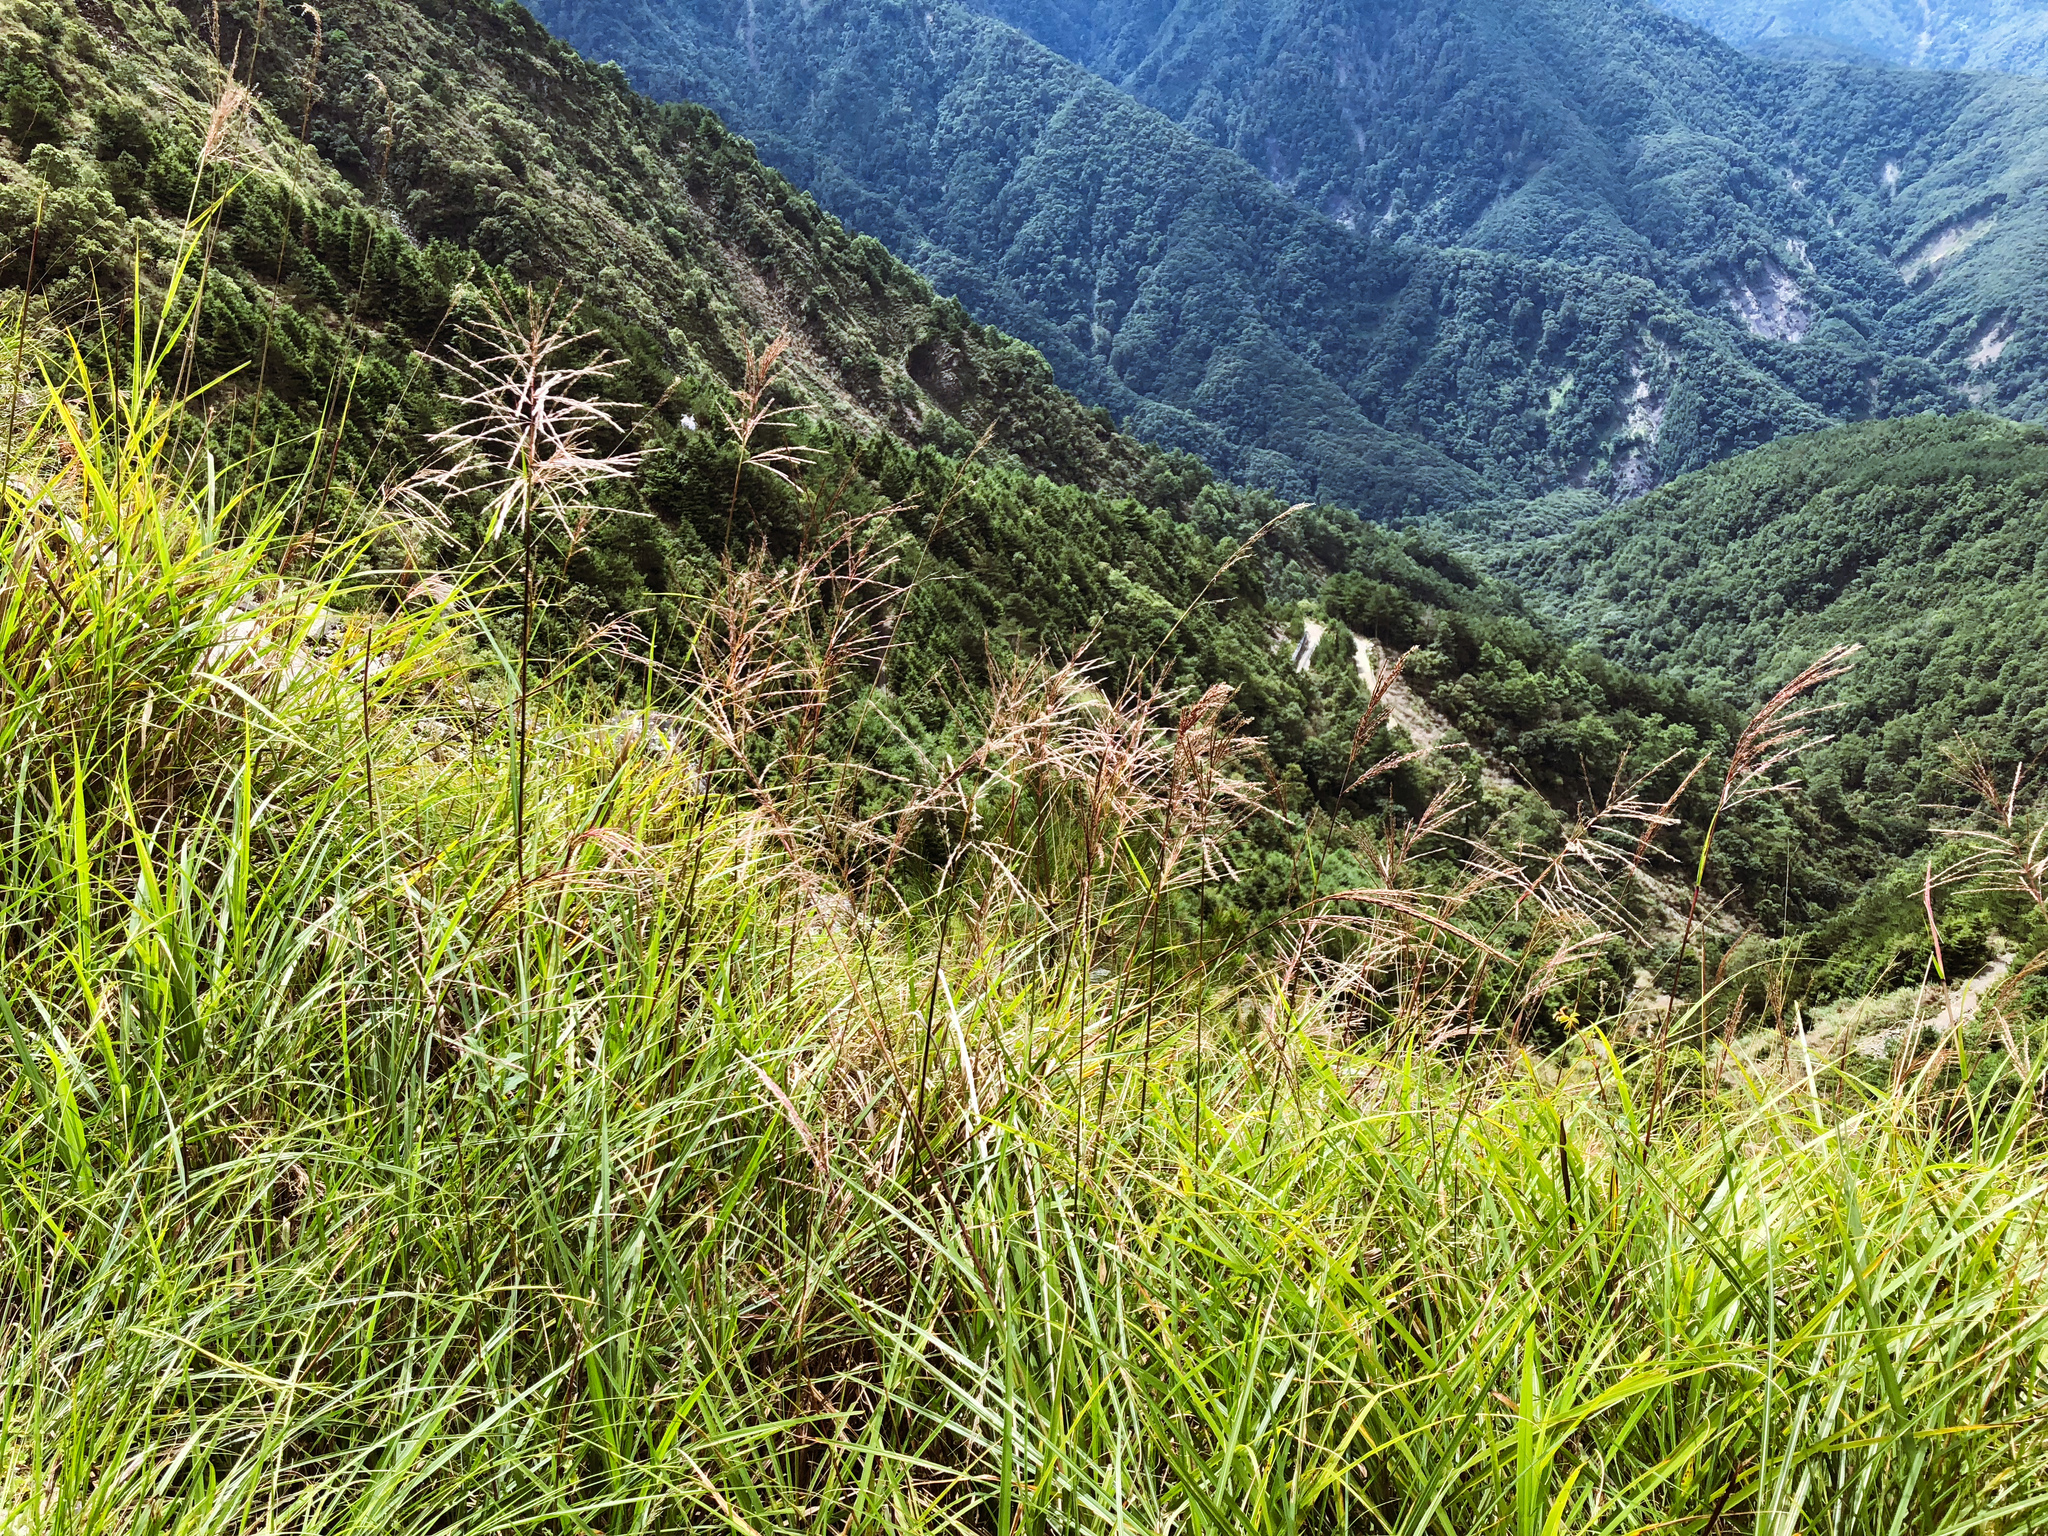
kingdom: Plantae
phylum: Tracheophyta
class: Liliopsida
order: Poales
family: Poaceae
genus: Miscanthus
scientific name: Miscanthus sinensis
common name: Chinese silvergrass
